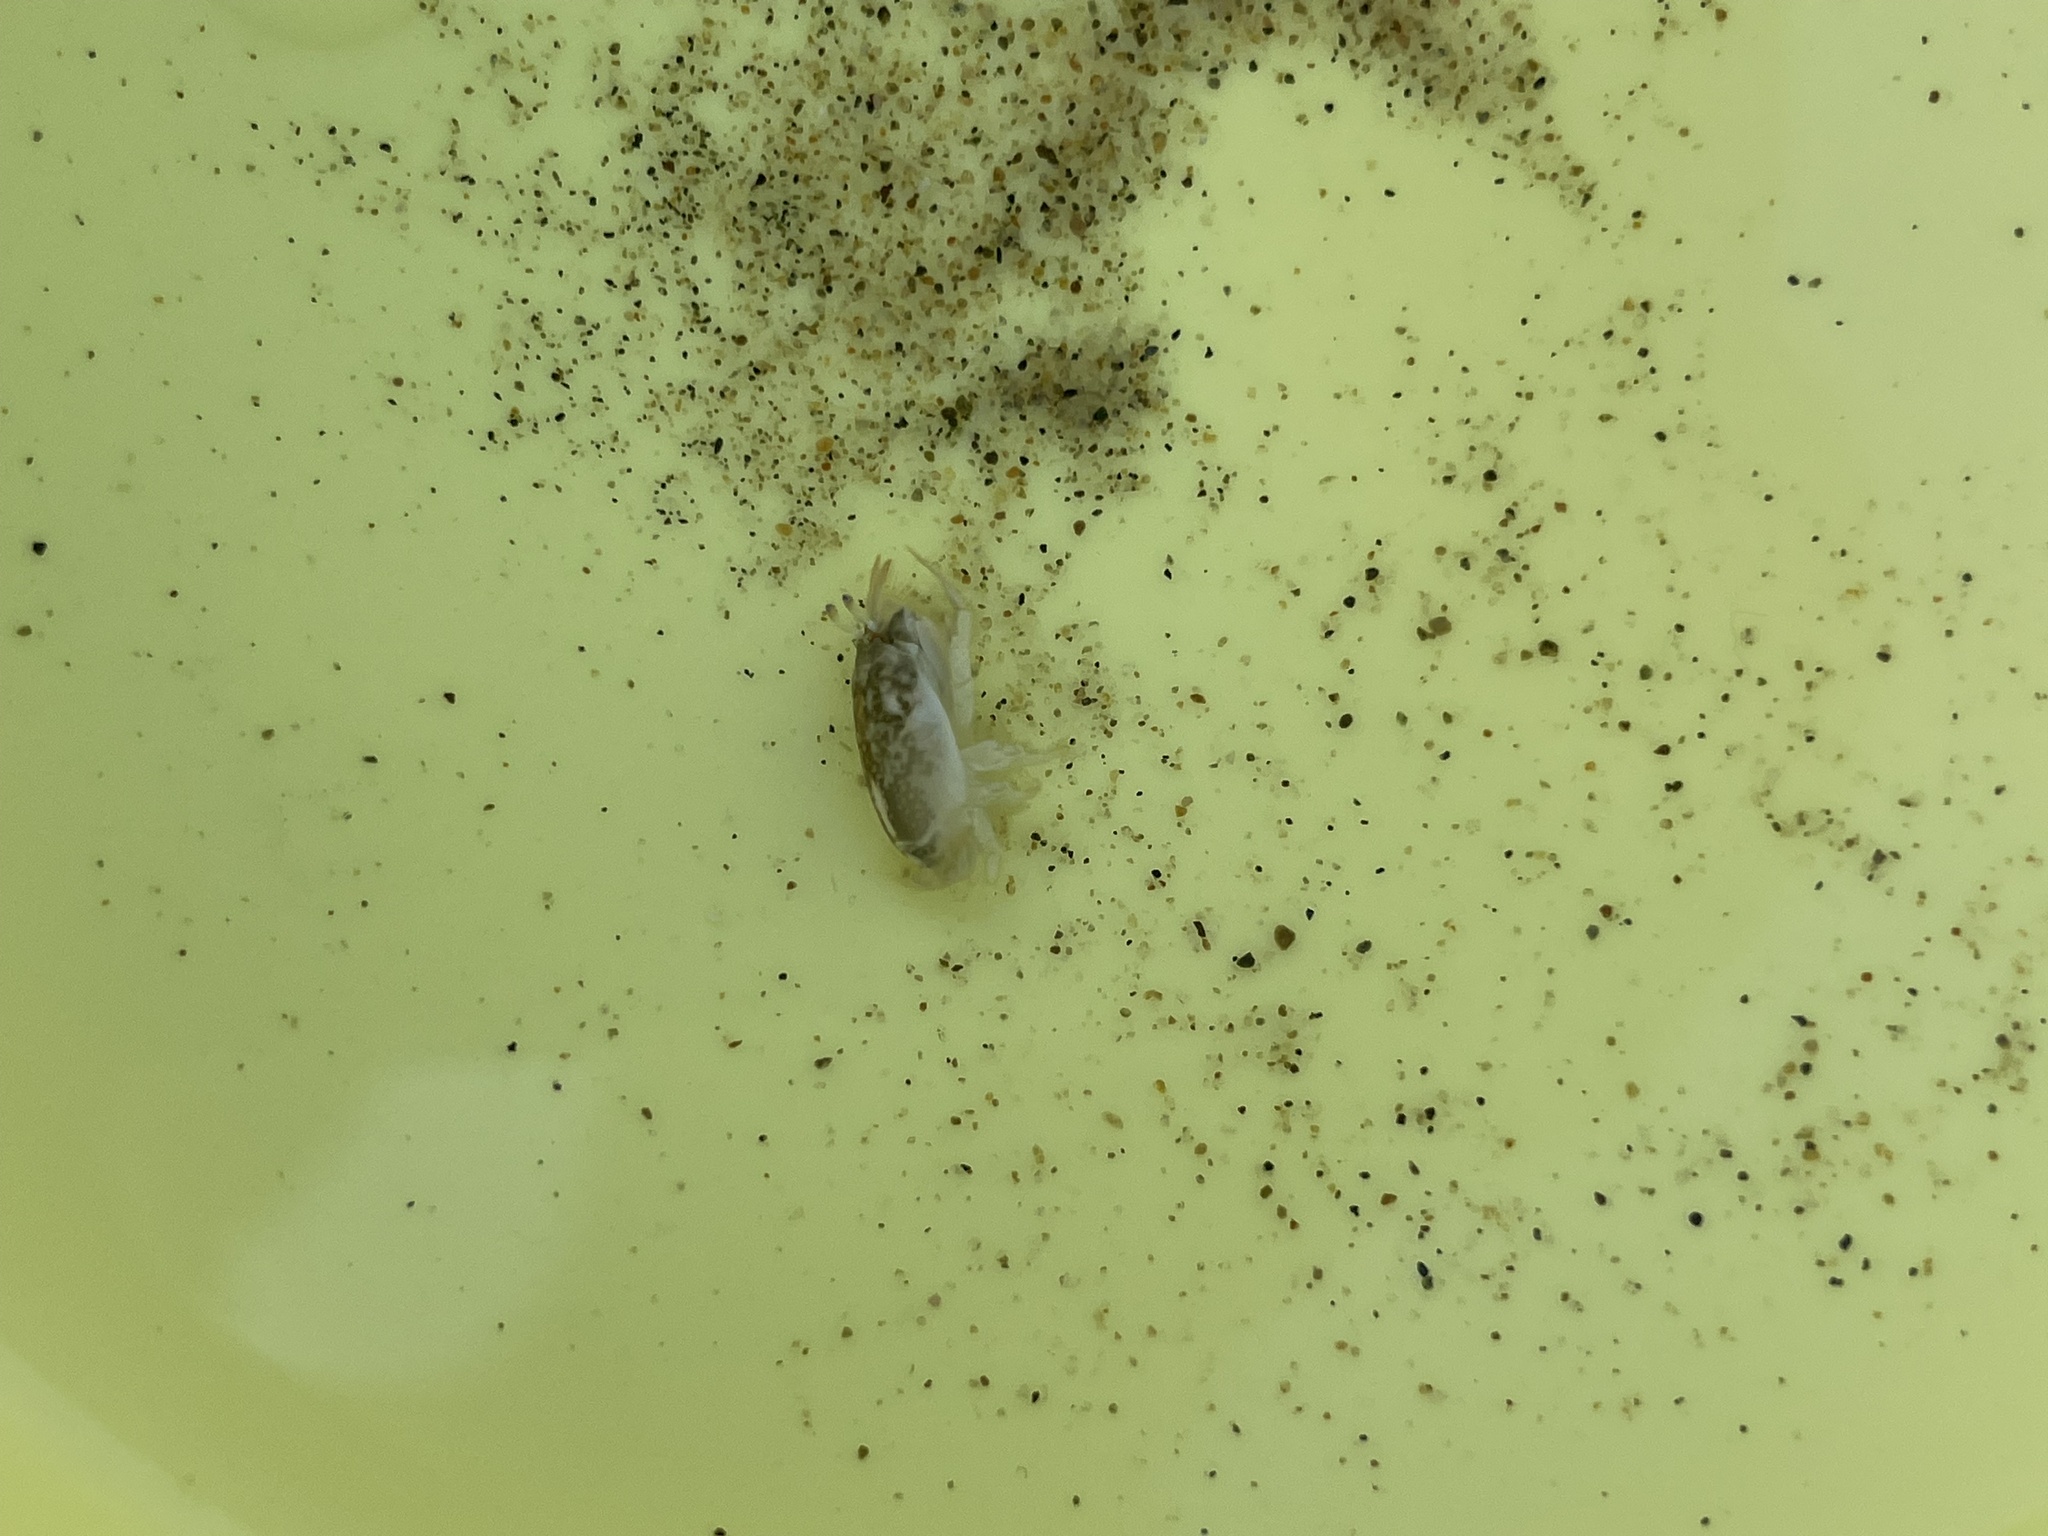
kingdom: Animalia
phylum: Arthropoda
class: Malacostraca
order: Decapoda
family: Hippidae
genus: Emerita
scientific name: Emerita analoga
